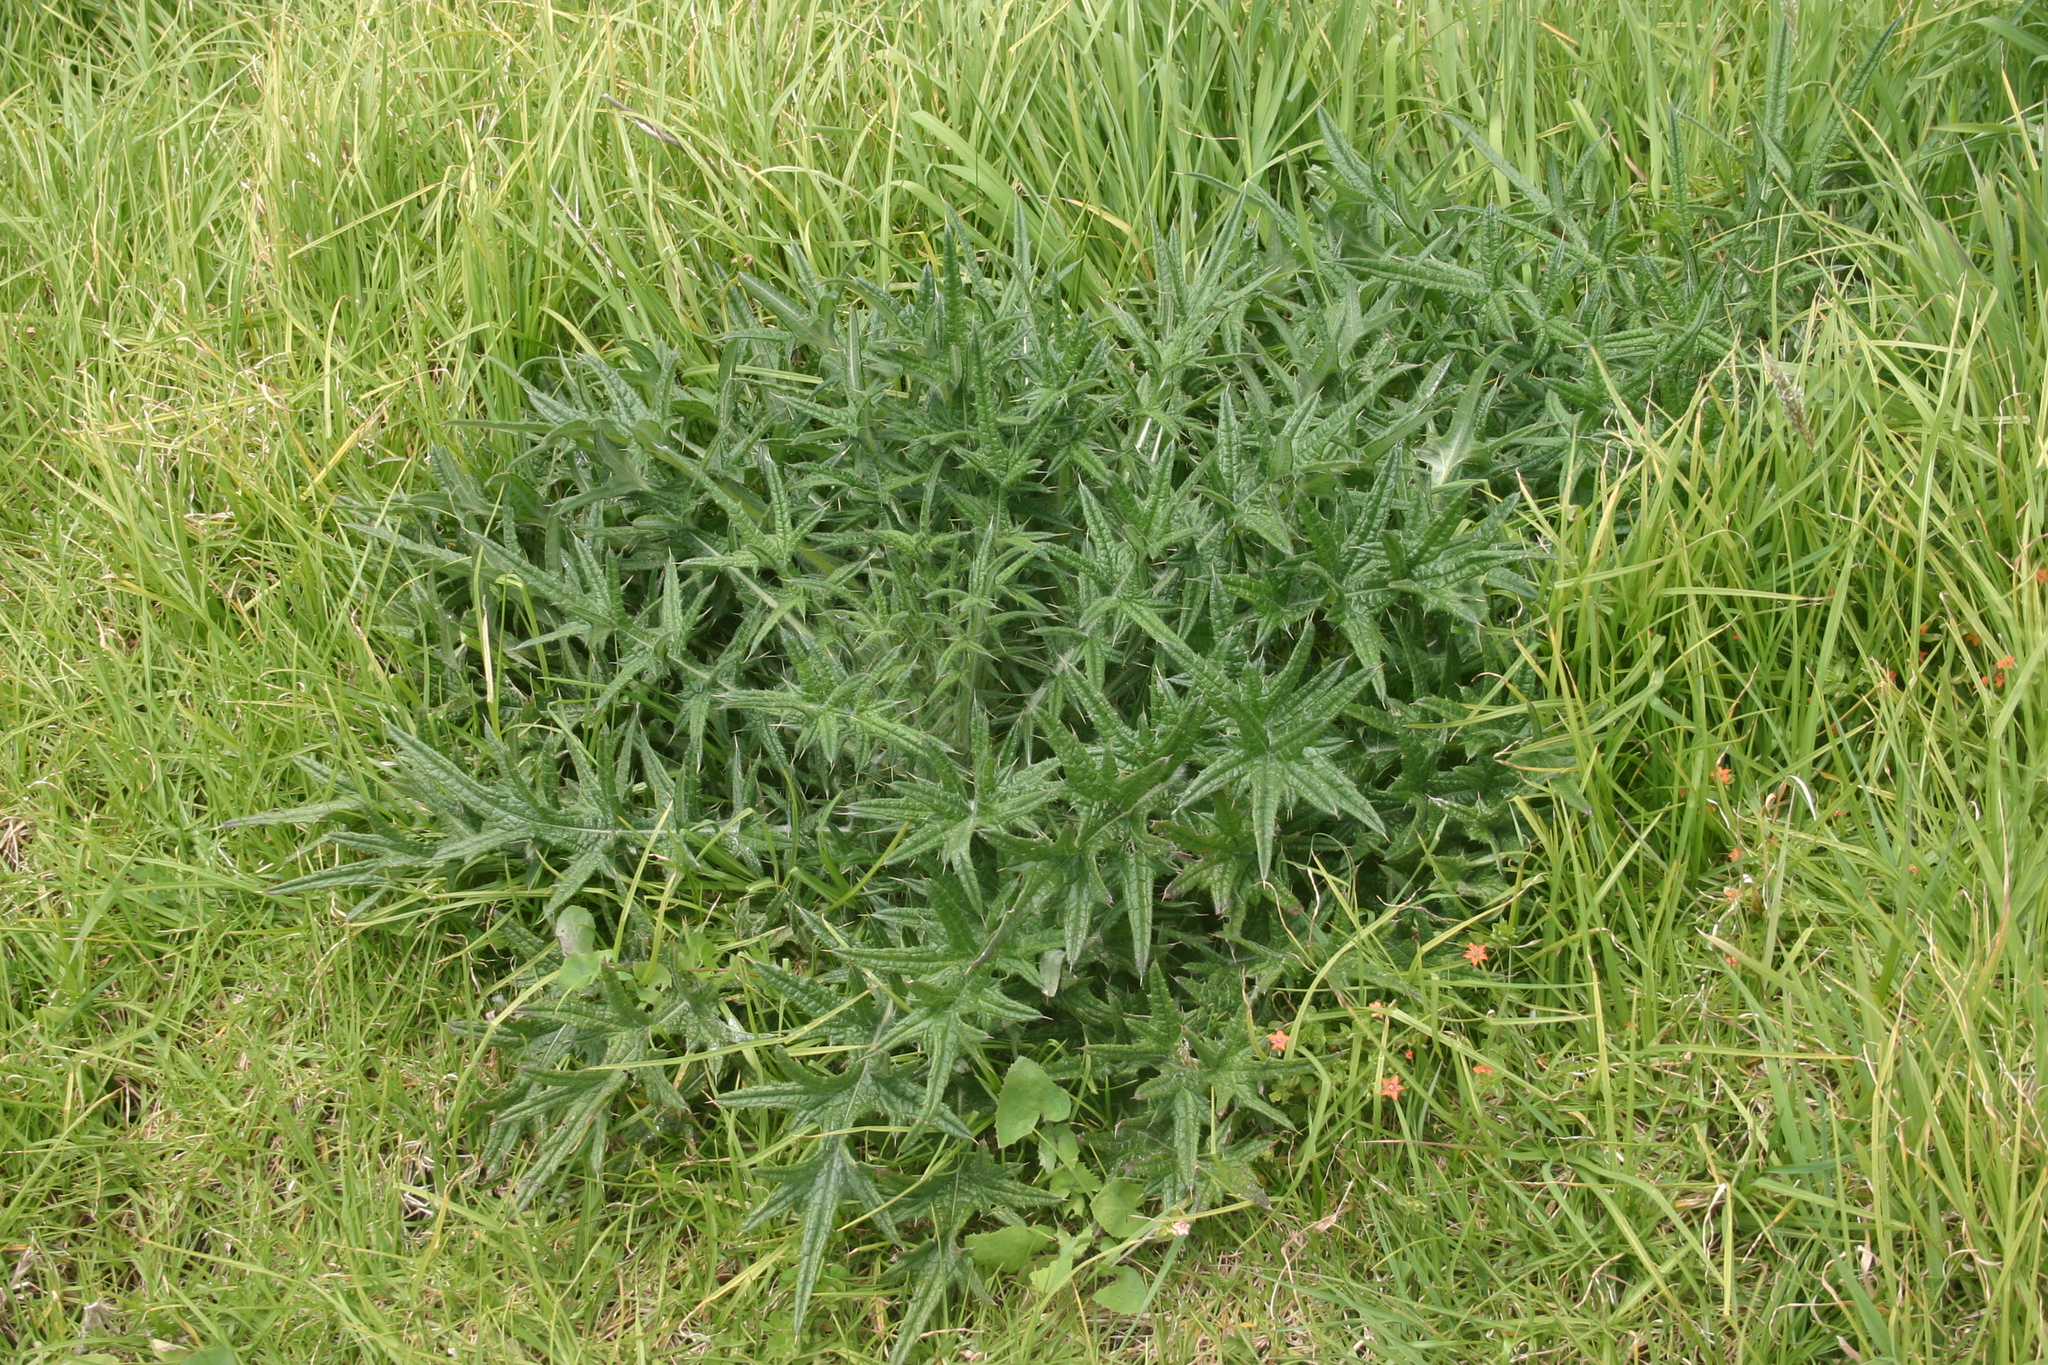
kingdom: Plantae
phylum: Tracheophyta
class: Magnoliopsida
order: Asterales
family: Asteraceae
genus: Cirsium
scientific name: Cirsium vulgare
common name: Bull thistle
